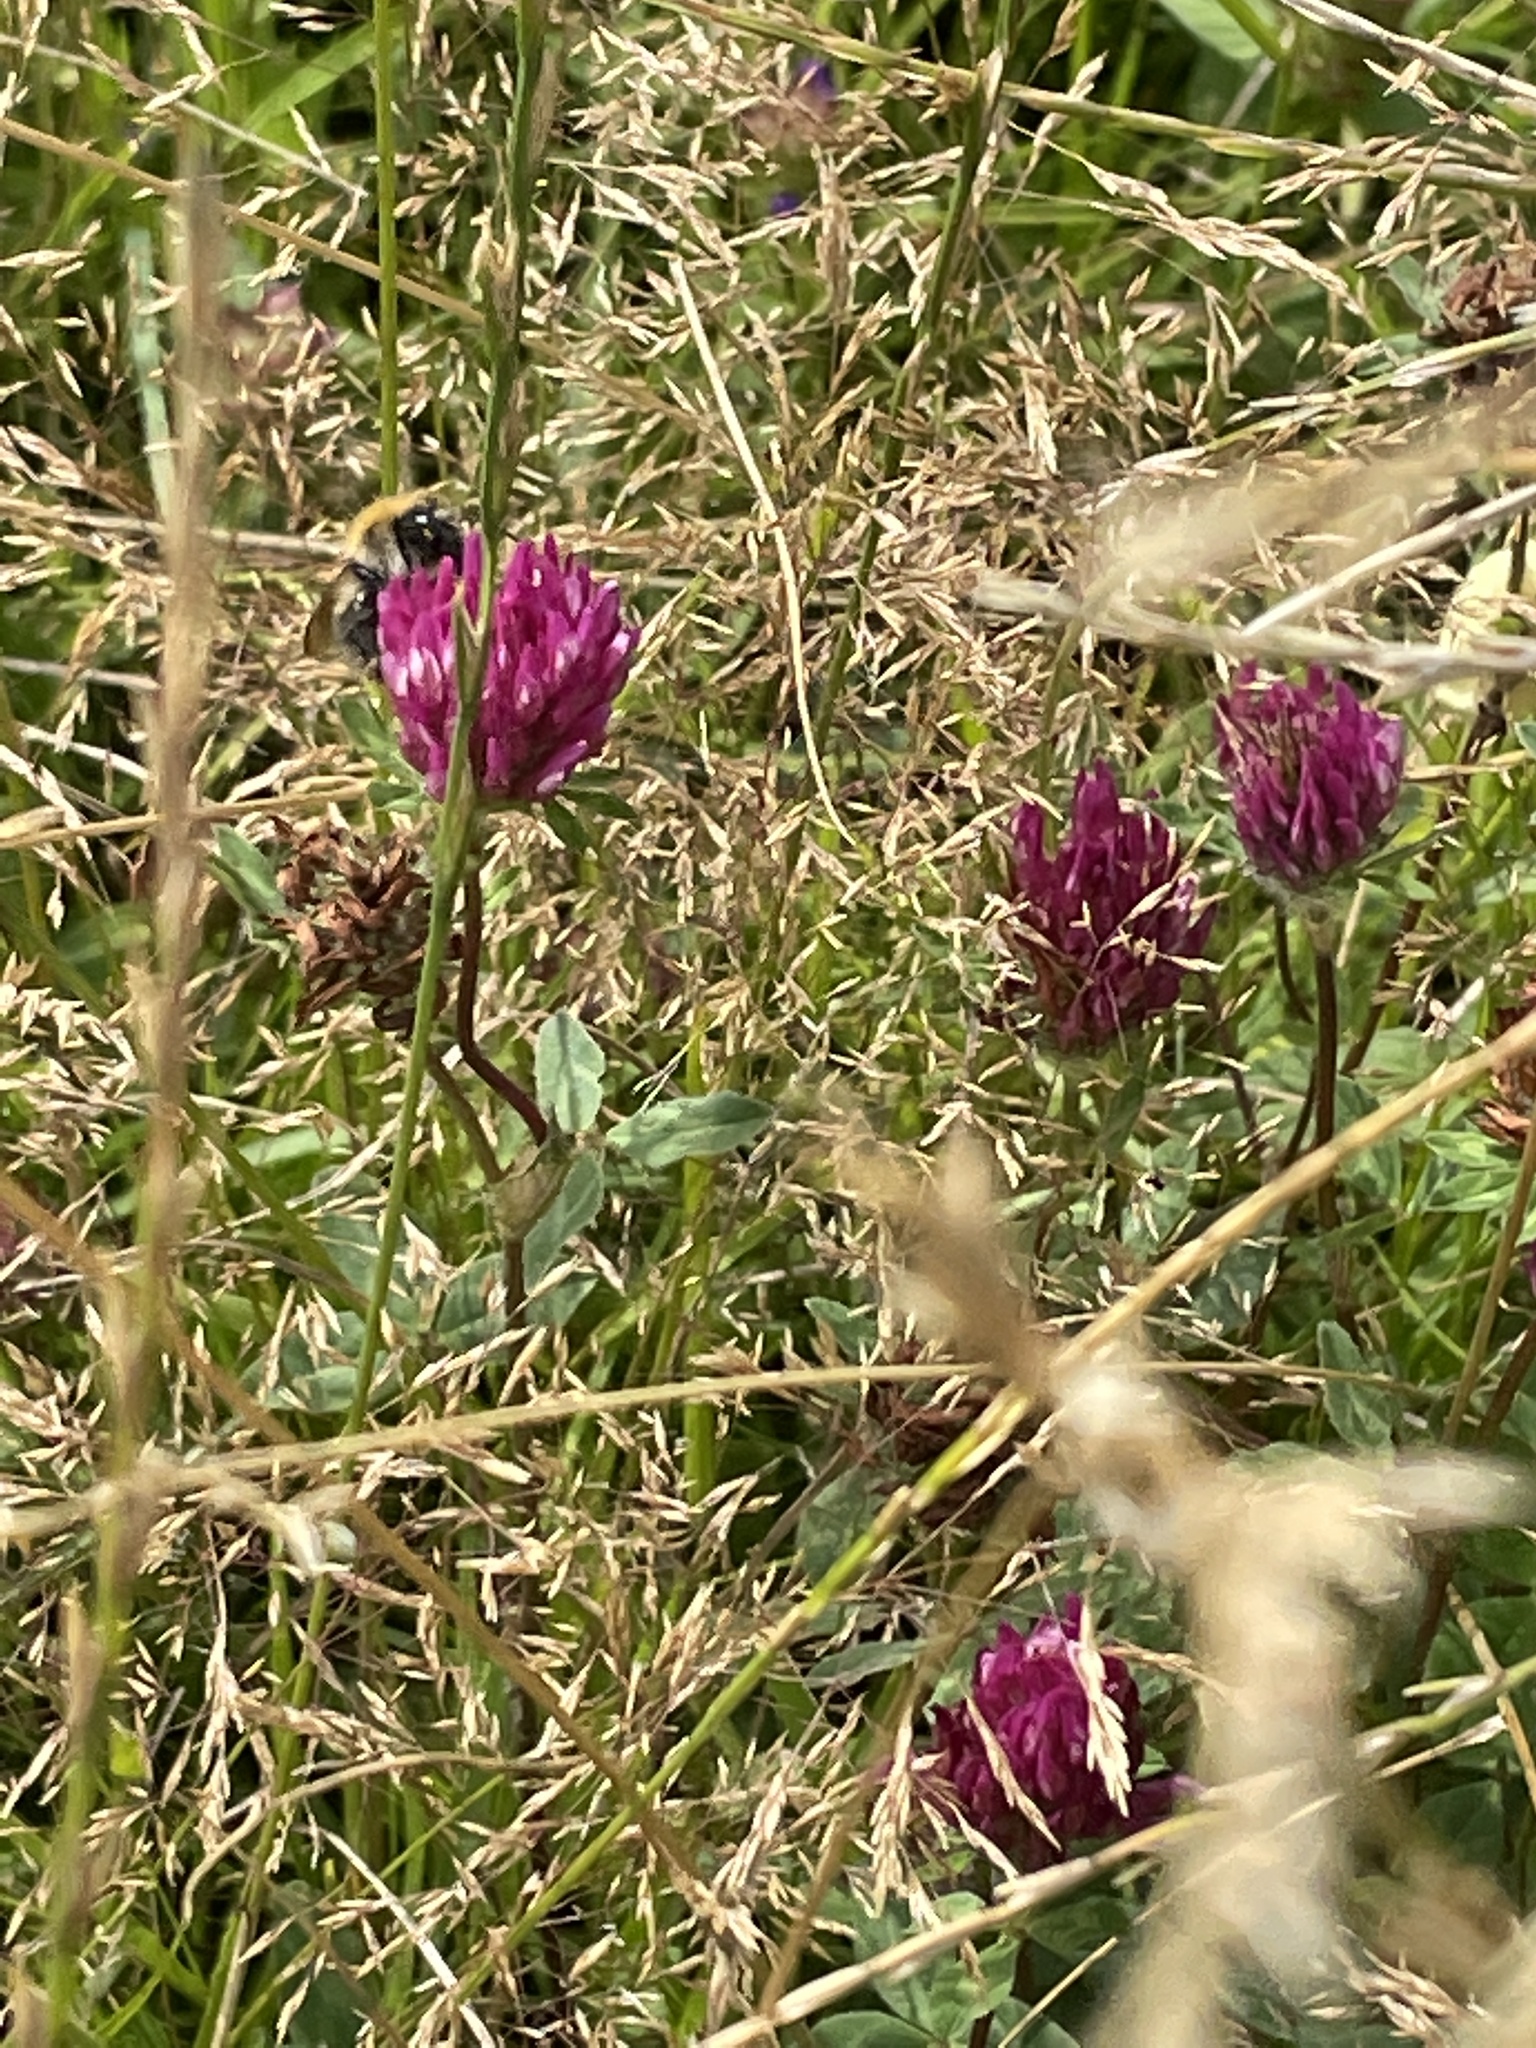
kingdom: Plantae
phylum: Tracheophyta
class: Magnoliopsida
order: Fabales
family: Fabaceae
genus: Trifolium
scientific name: Trifolium pratense
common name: Red clover
